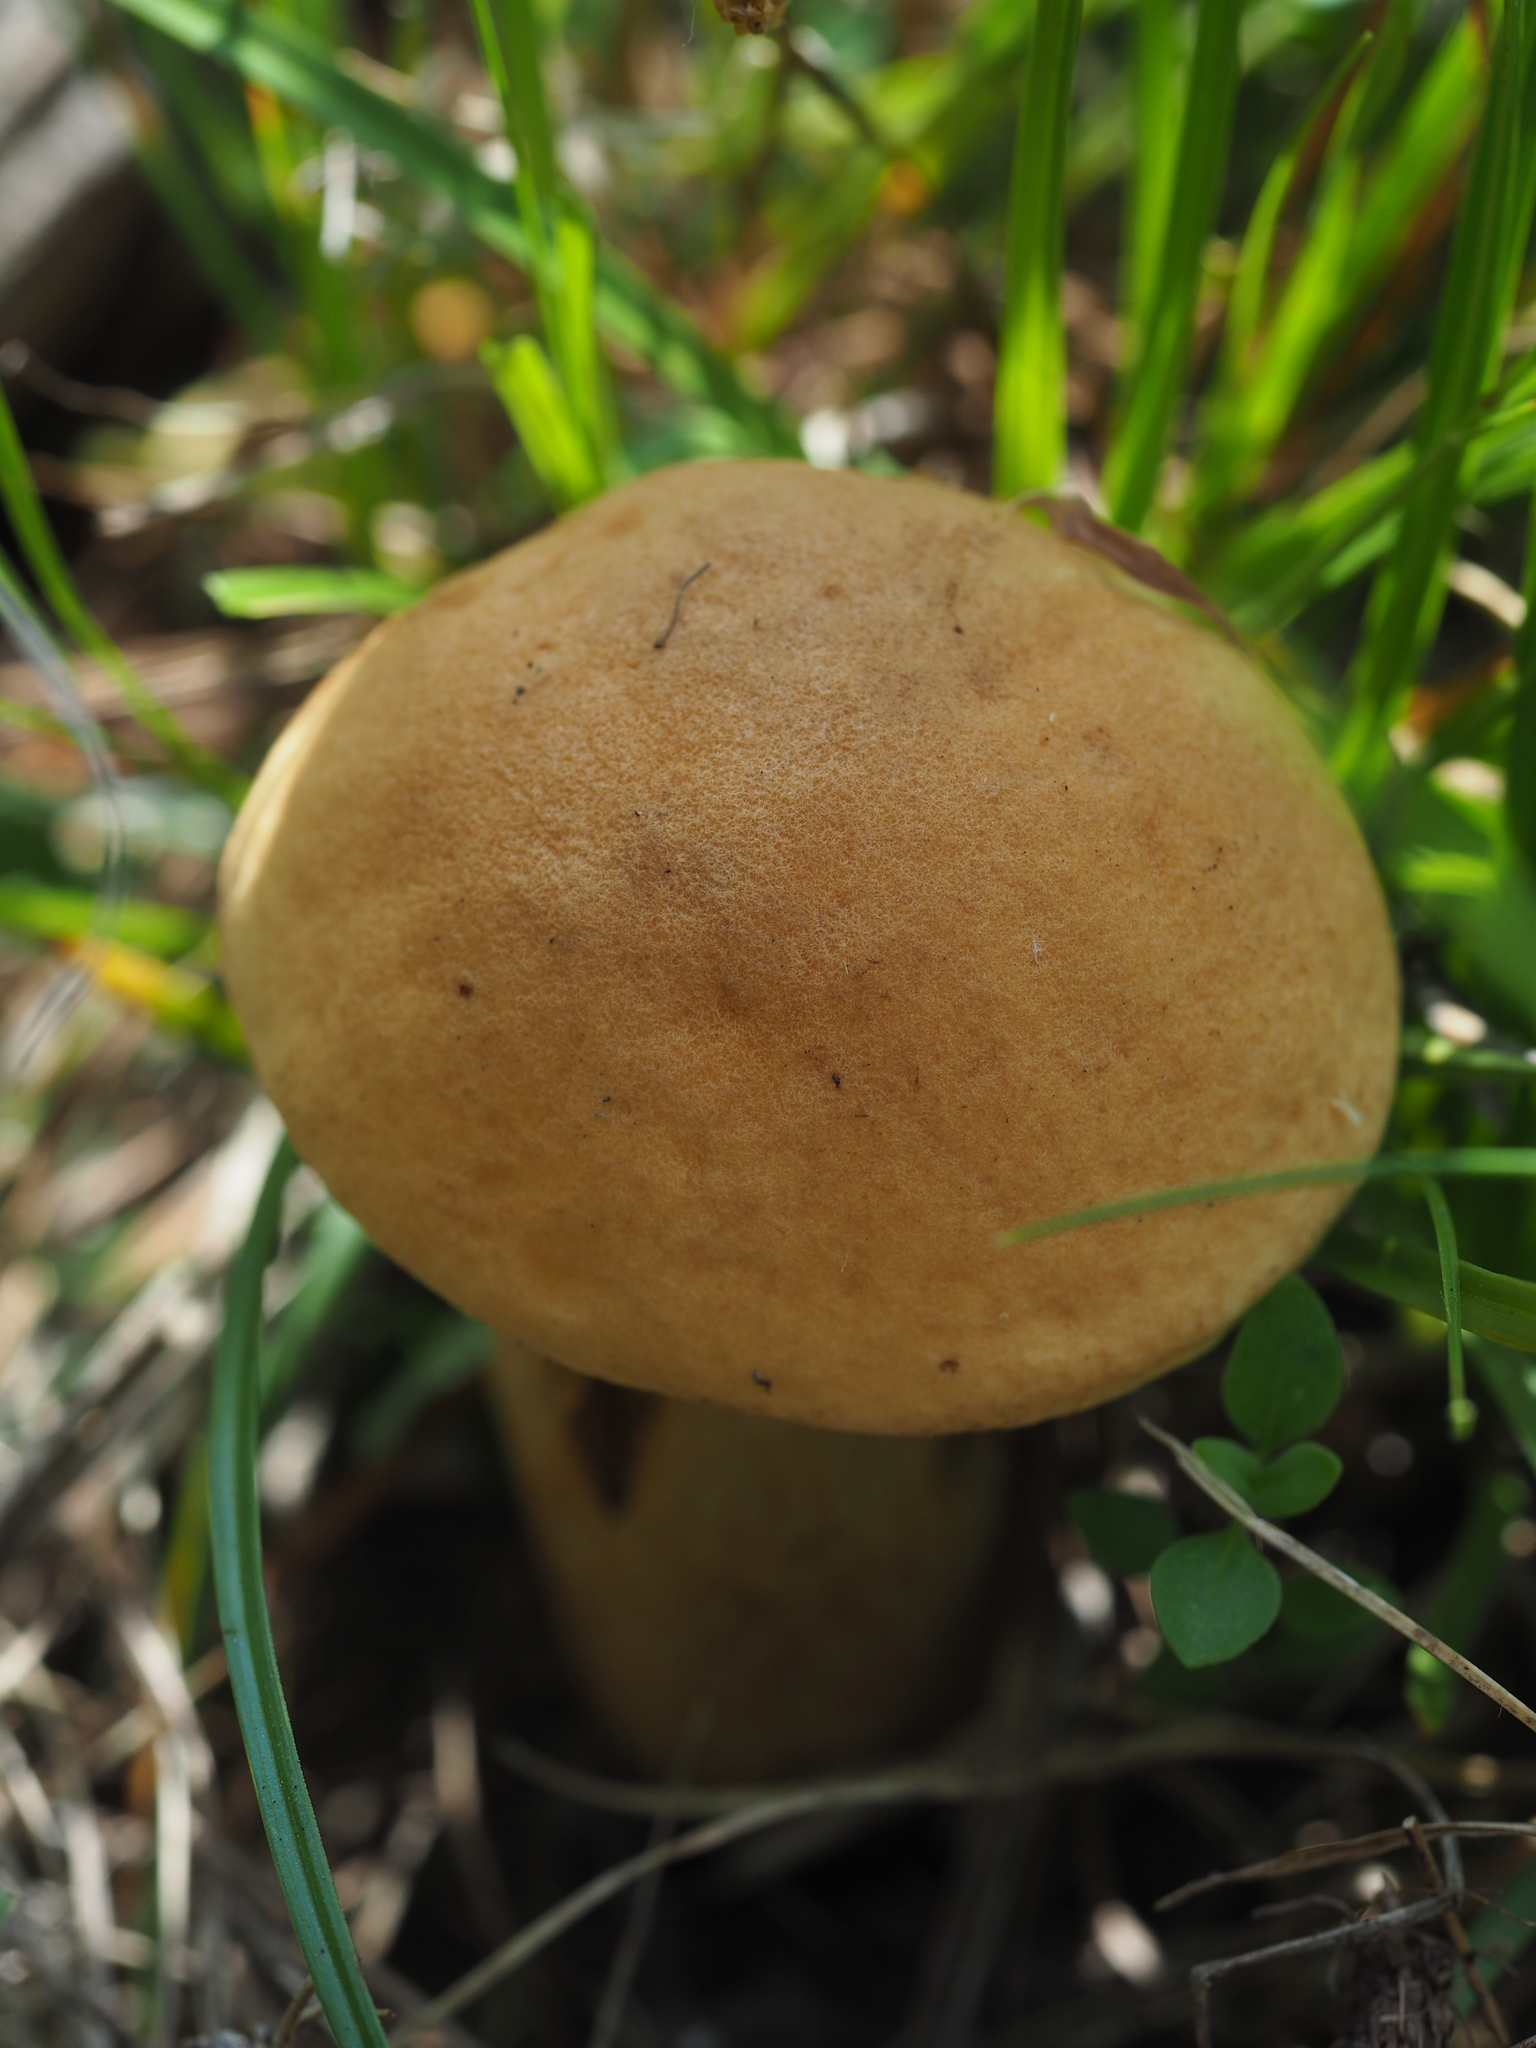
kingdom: Fungi
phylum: Basidiomycota
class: Agaricomycetes
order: Boletales
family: Boletaceae
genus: Leccinellum
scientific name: Leccinellum crocipodium
